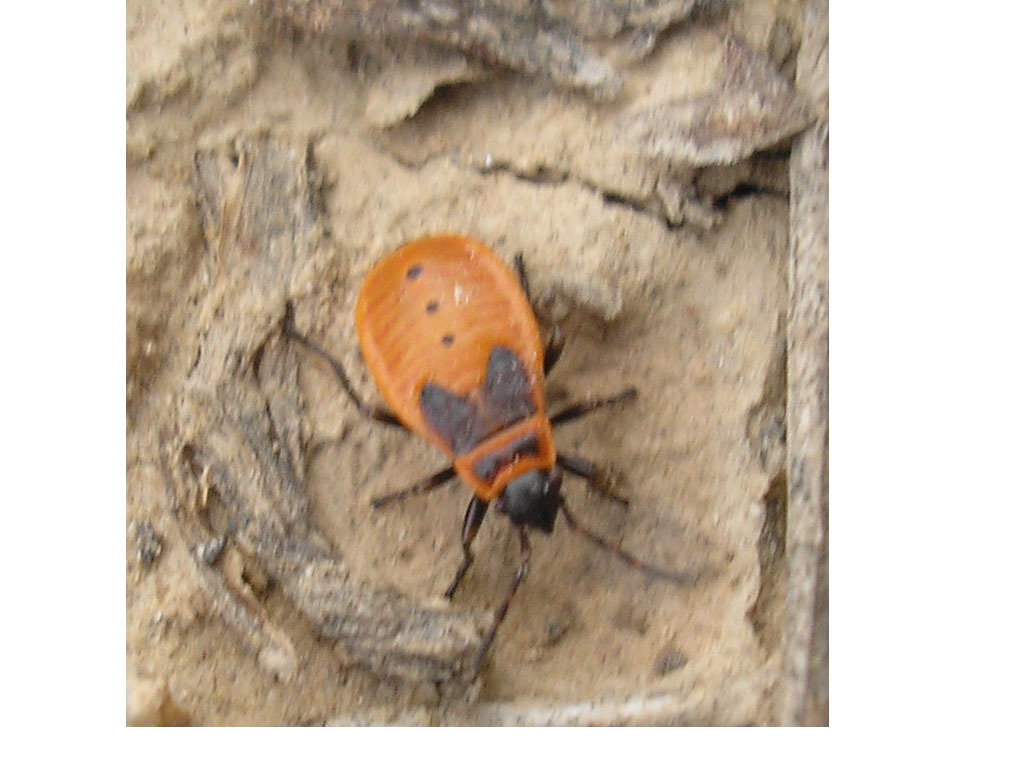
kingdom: Animalia
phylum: Arthropoda
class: Insecta
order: Hemiptera
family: Pyrrhocoridae
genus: Pyrrhocoris
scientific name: Pyrrhocoris apterus
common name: Firebug
